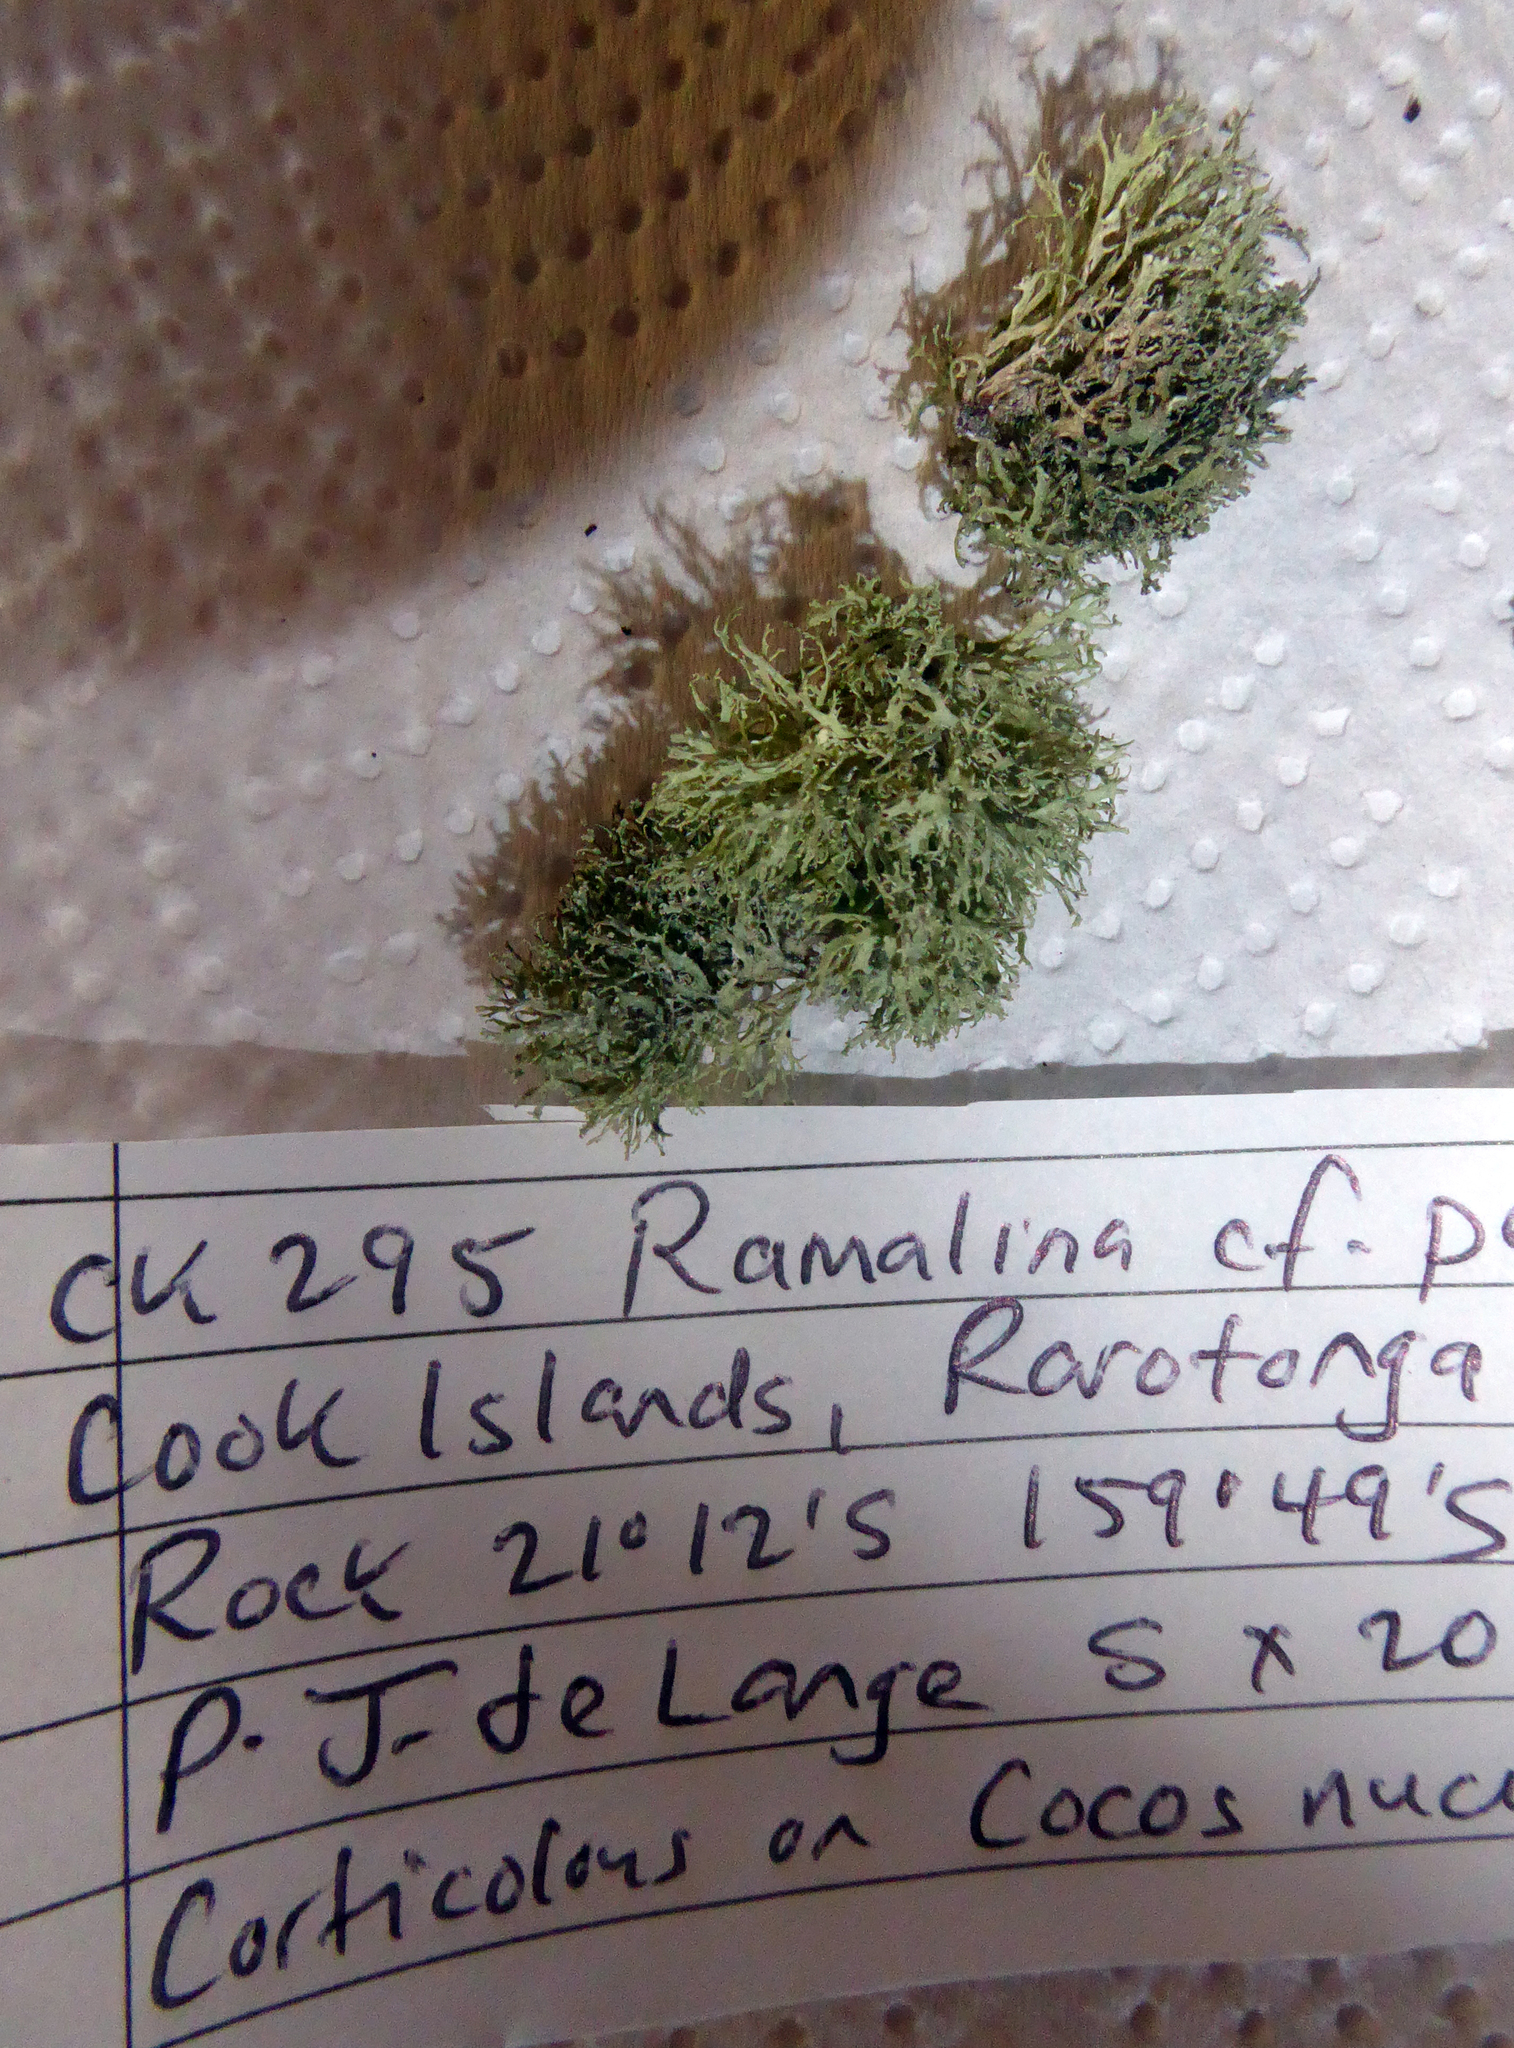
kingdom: Fungi
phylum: Ascomycota
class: Lecanoromycetes
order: Lecanorales
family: Ramalinaceae
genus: Ramalina
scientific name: Ramalina peruviana
